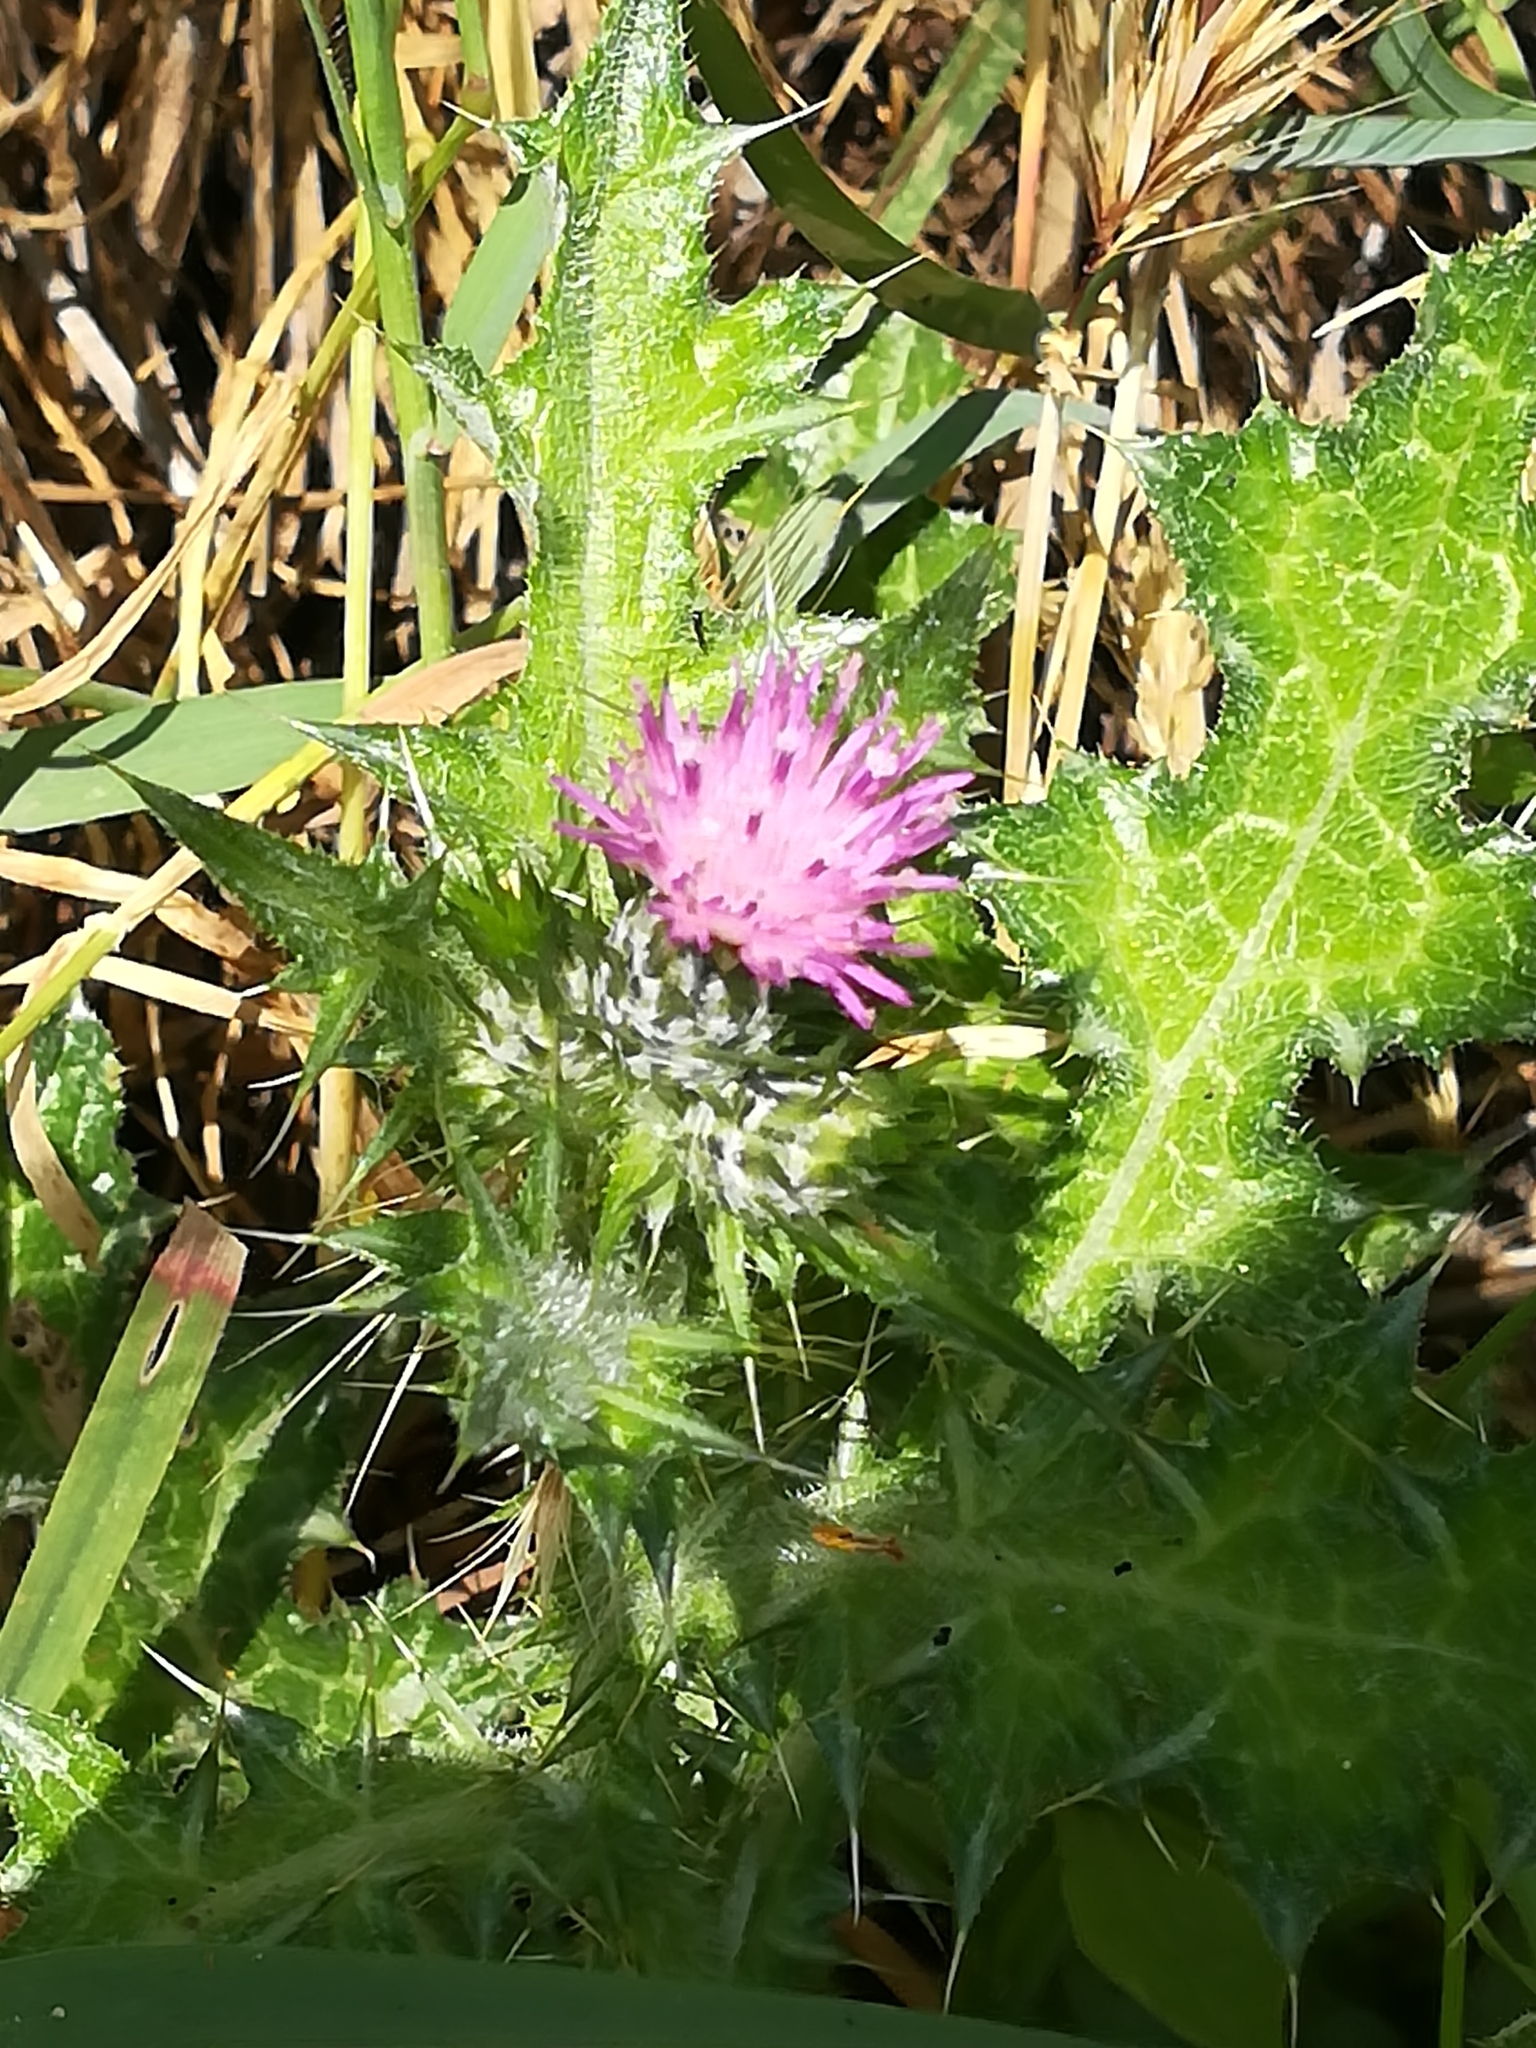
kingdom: Plantae
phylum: Tracheophyta
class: Magnoliopsida
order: Asterales
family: Asteraceae
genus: Carduus
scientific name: Carduus pycnocephalus
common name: Plymouth thistle
